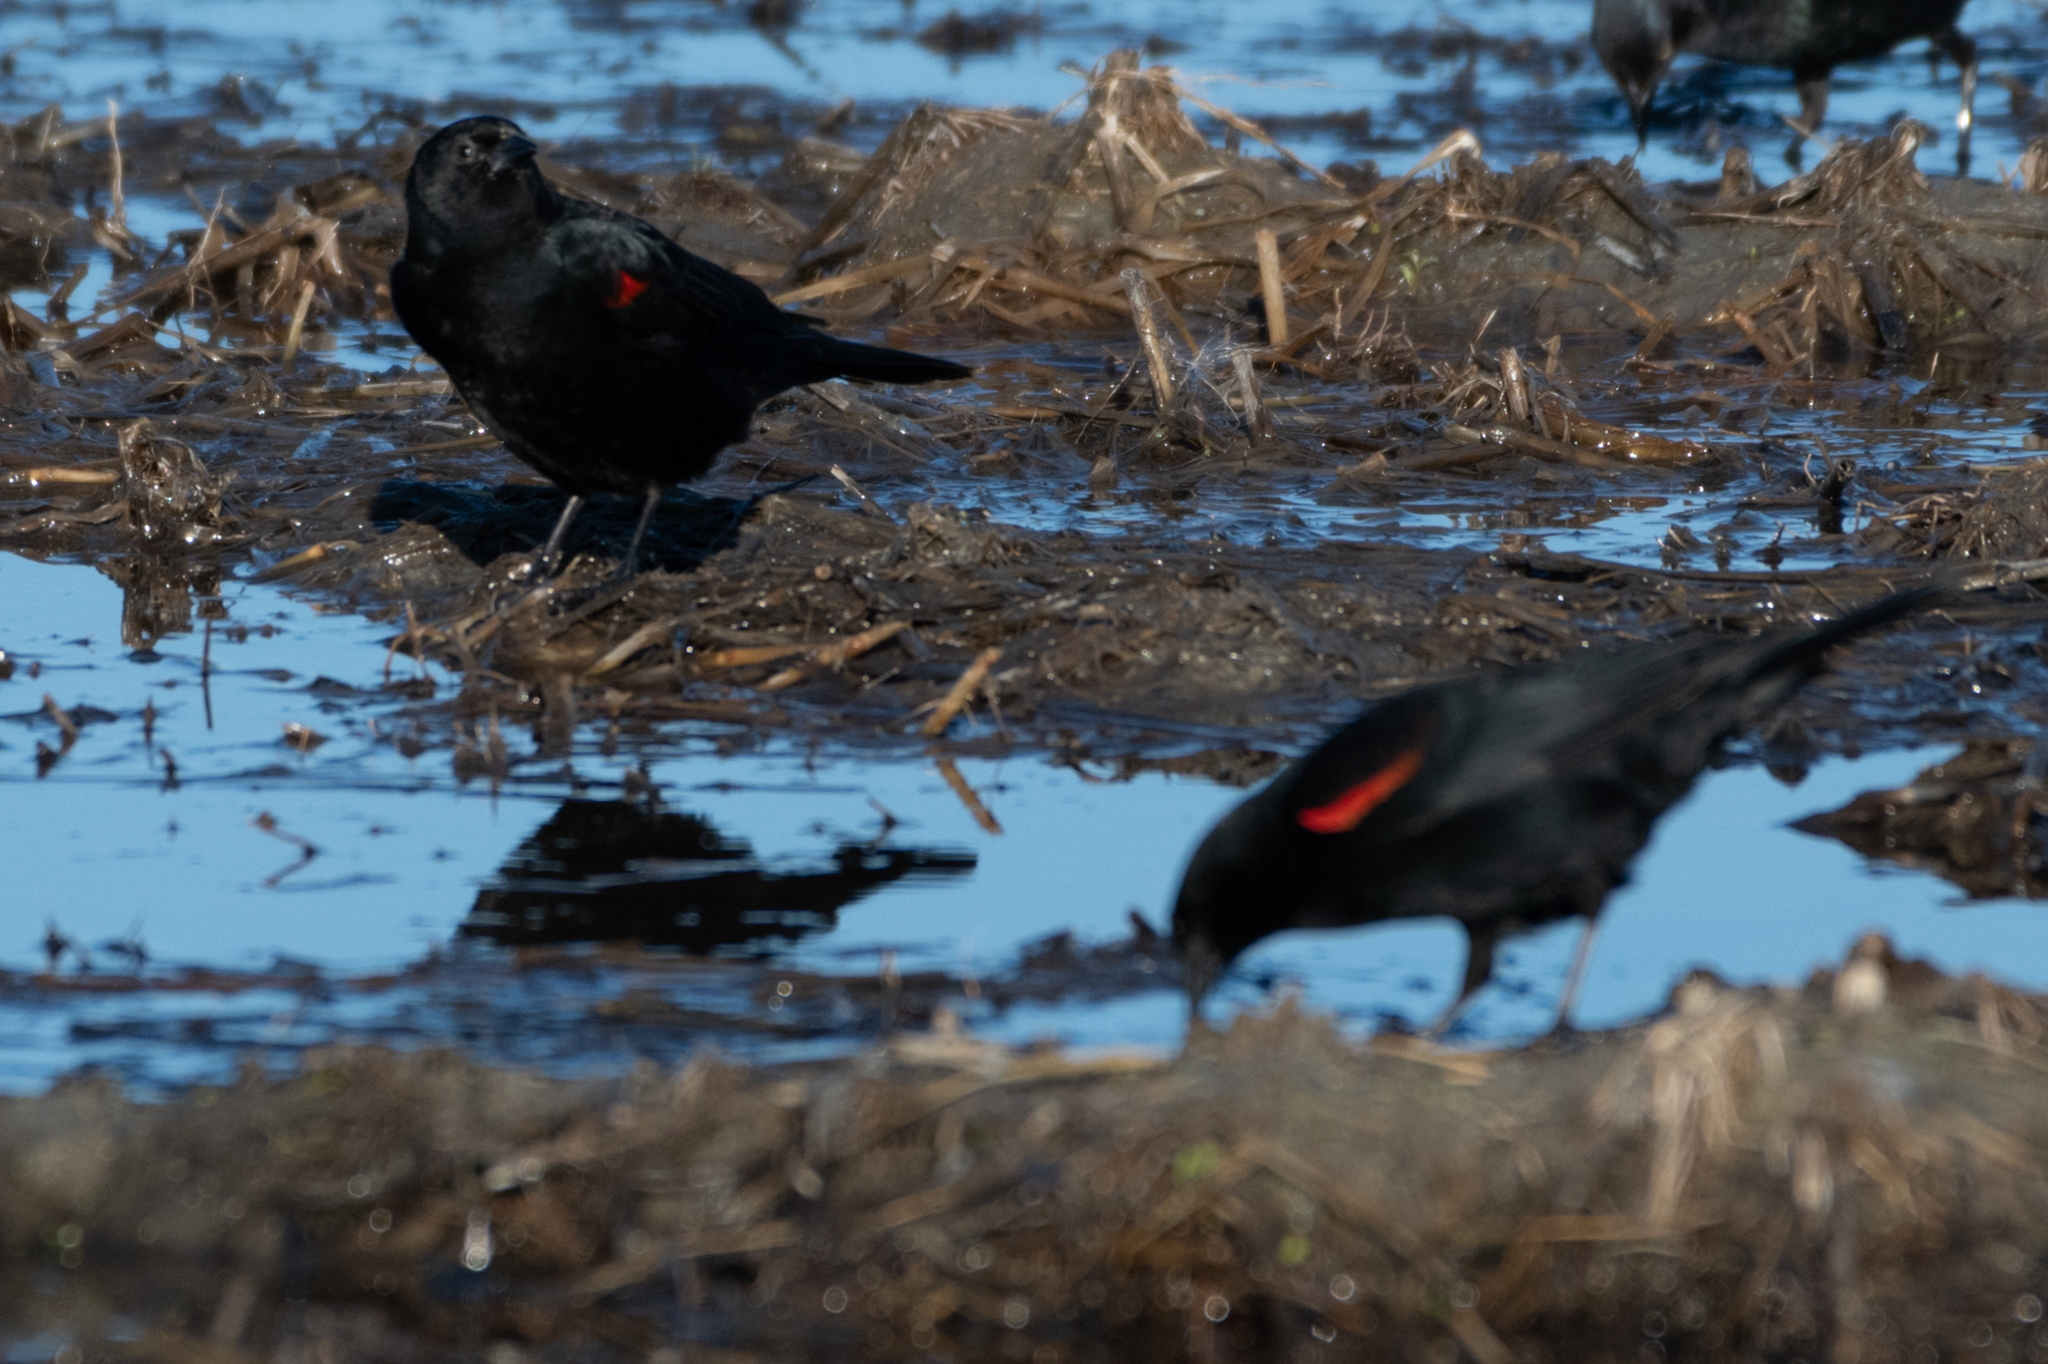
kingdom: Animalia
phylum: Chordata
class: Aves
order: Passeriformes
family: Icteridae
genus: Agelaius
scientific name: Agelaius phoeniceus
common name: Red-winged blackbird
